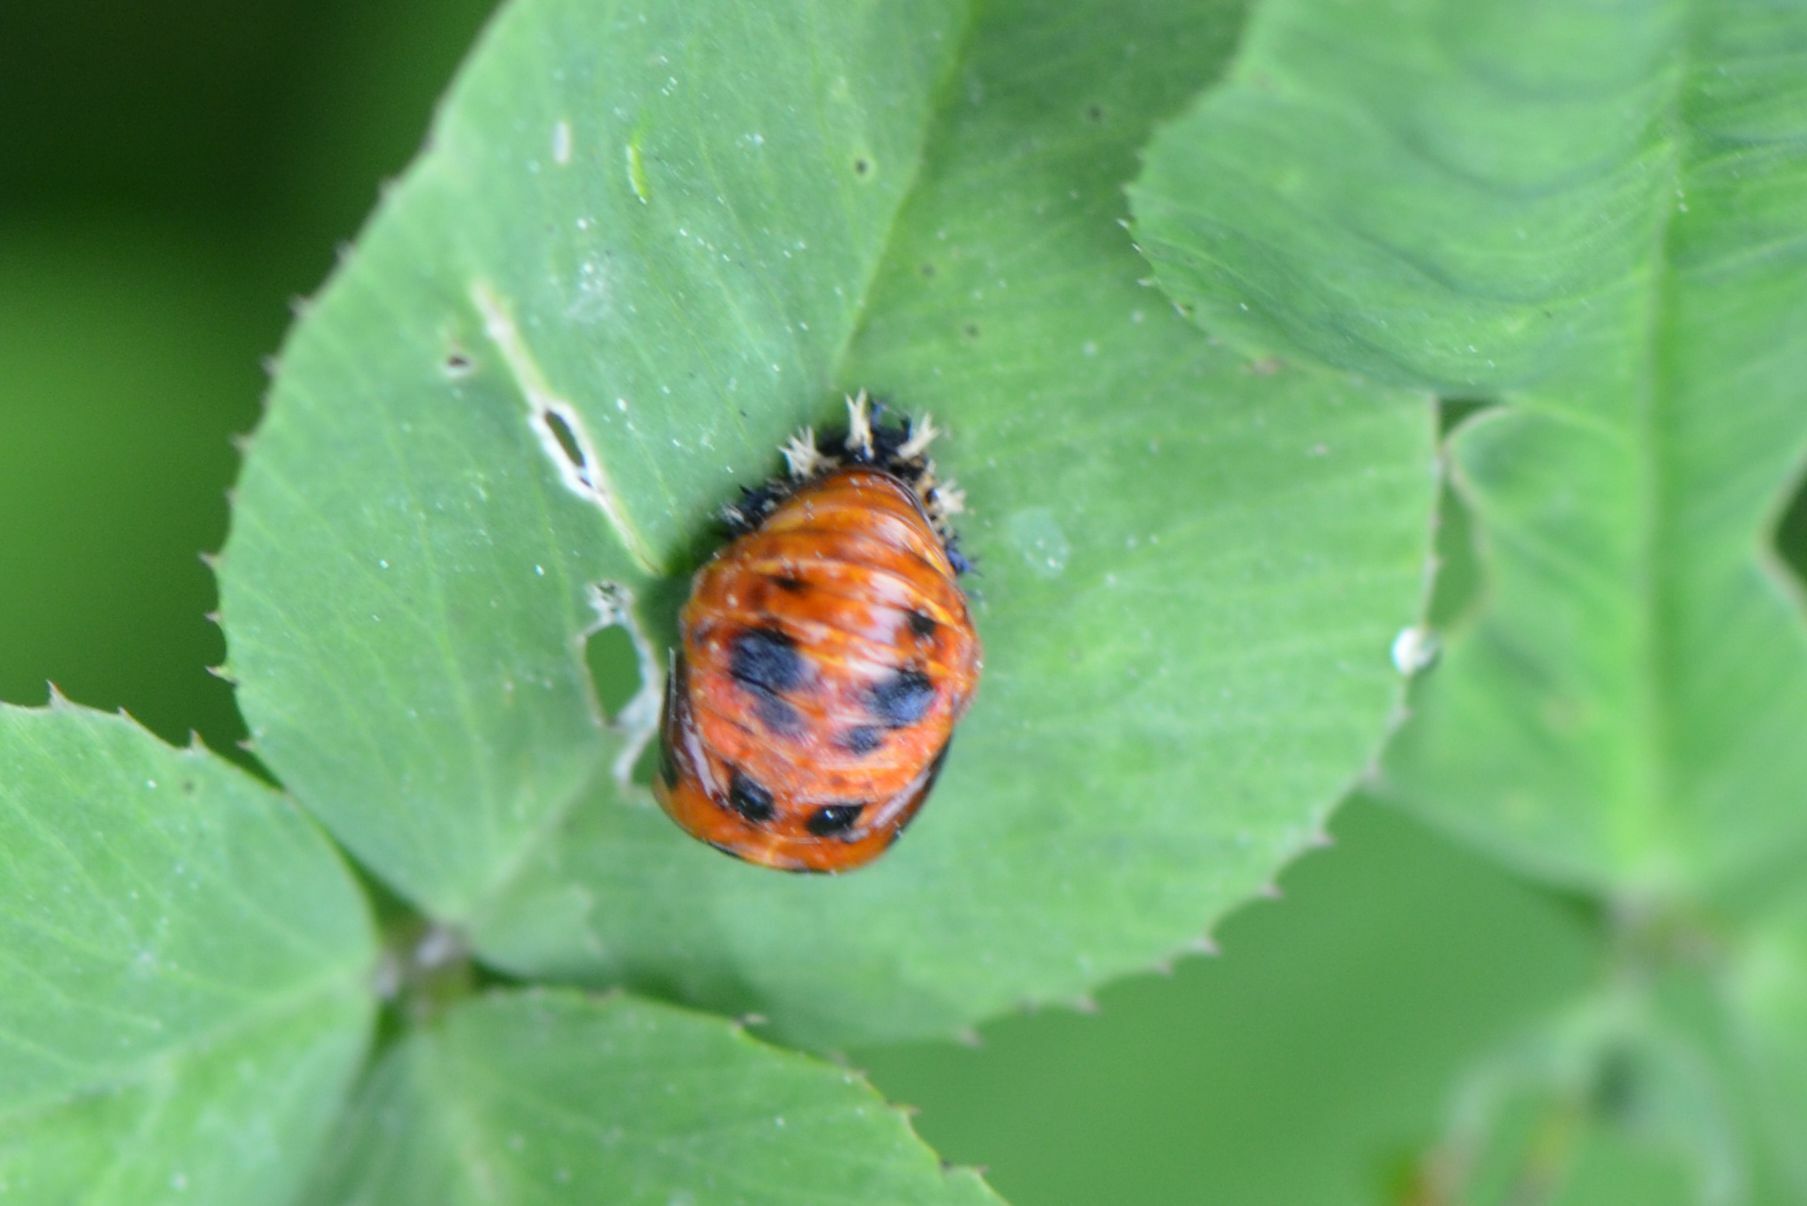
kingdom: Animalia
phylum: Arthropoda
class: Insecta
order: Coleoptera
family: Coccinellidae
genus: Harmonia
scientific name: Harmonia axyridis
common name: Harlequin ladybird
